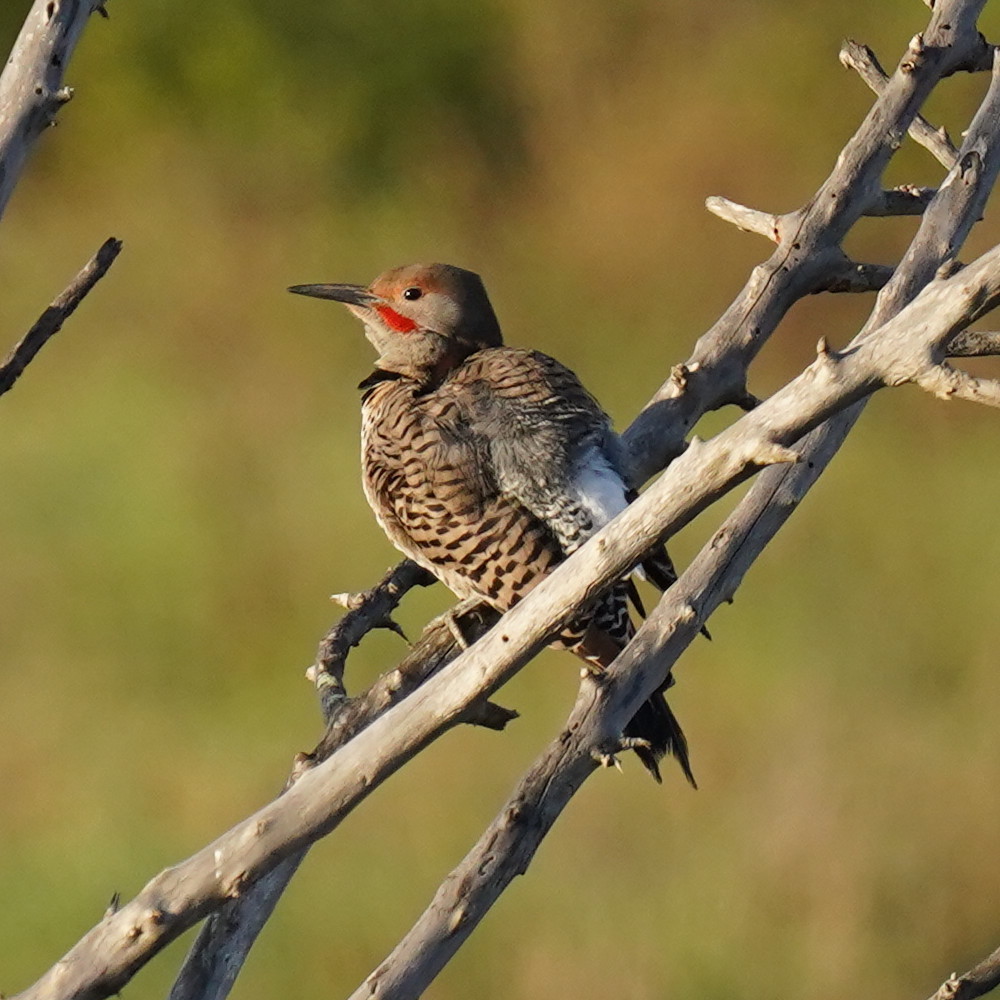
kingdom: Animalia
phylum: Chordata
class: Aves
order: Piciformes
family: Picidae
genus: Colaptes
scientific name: Colaptes auratus
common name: Northern flicker
